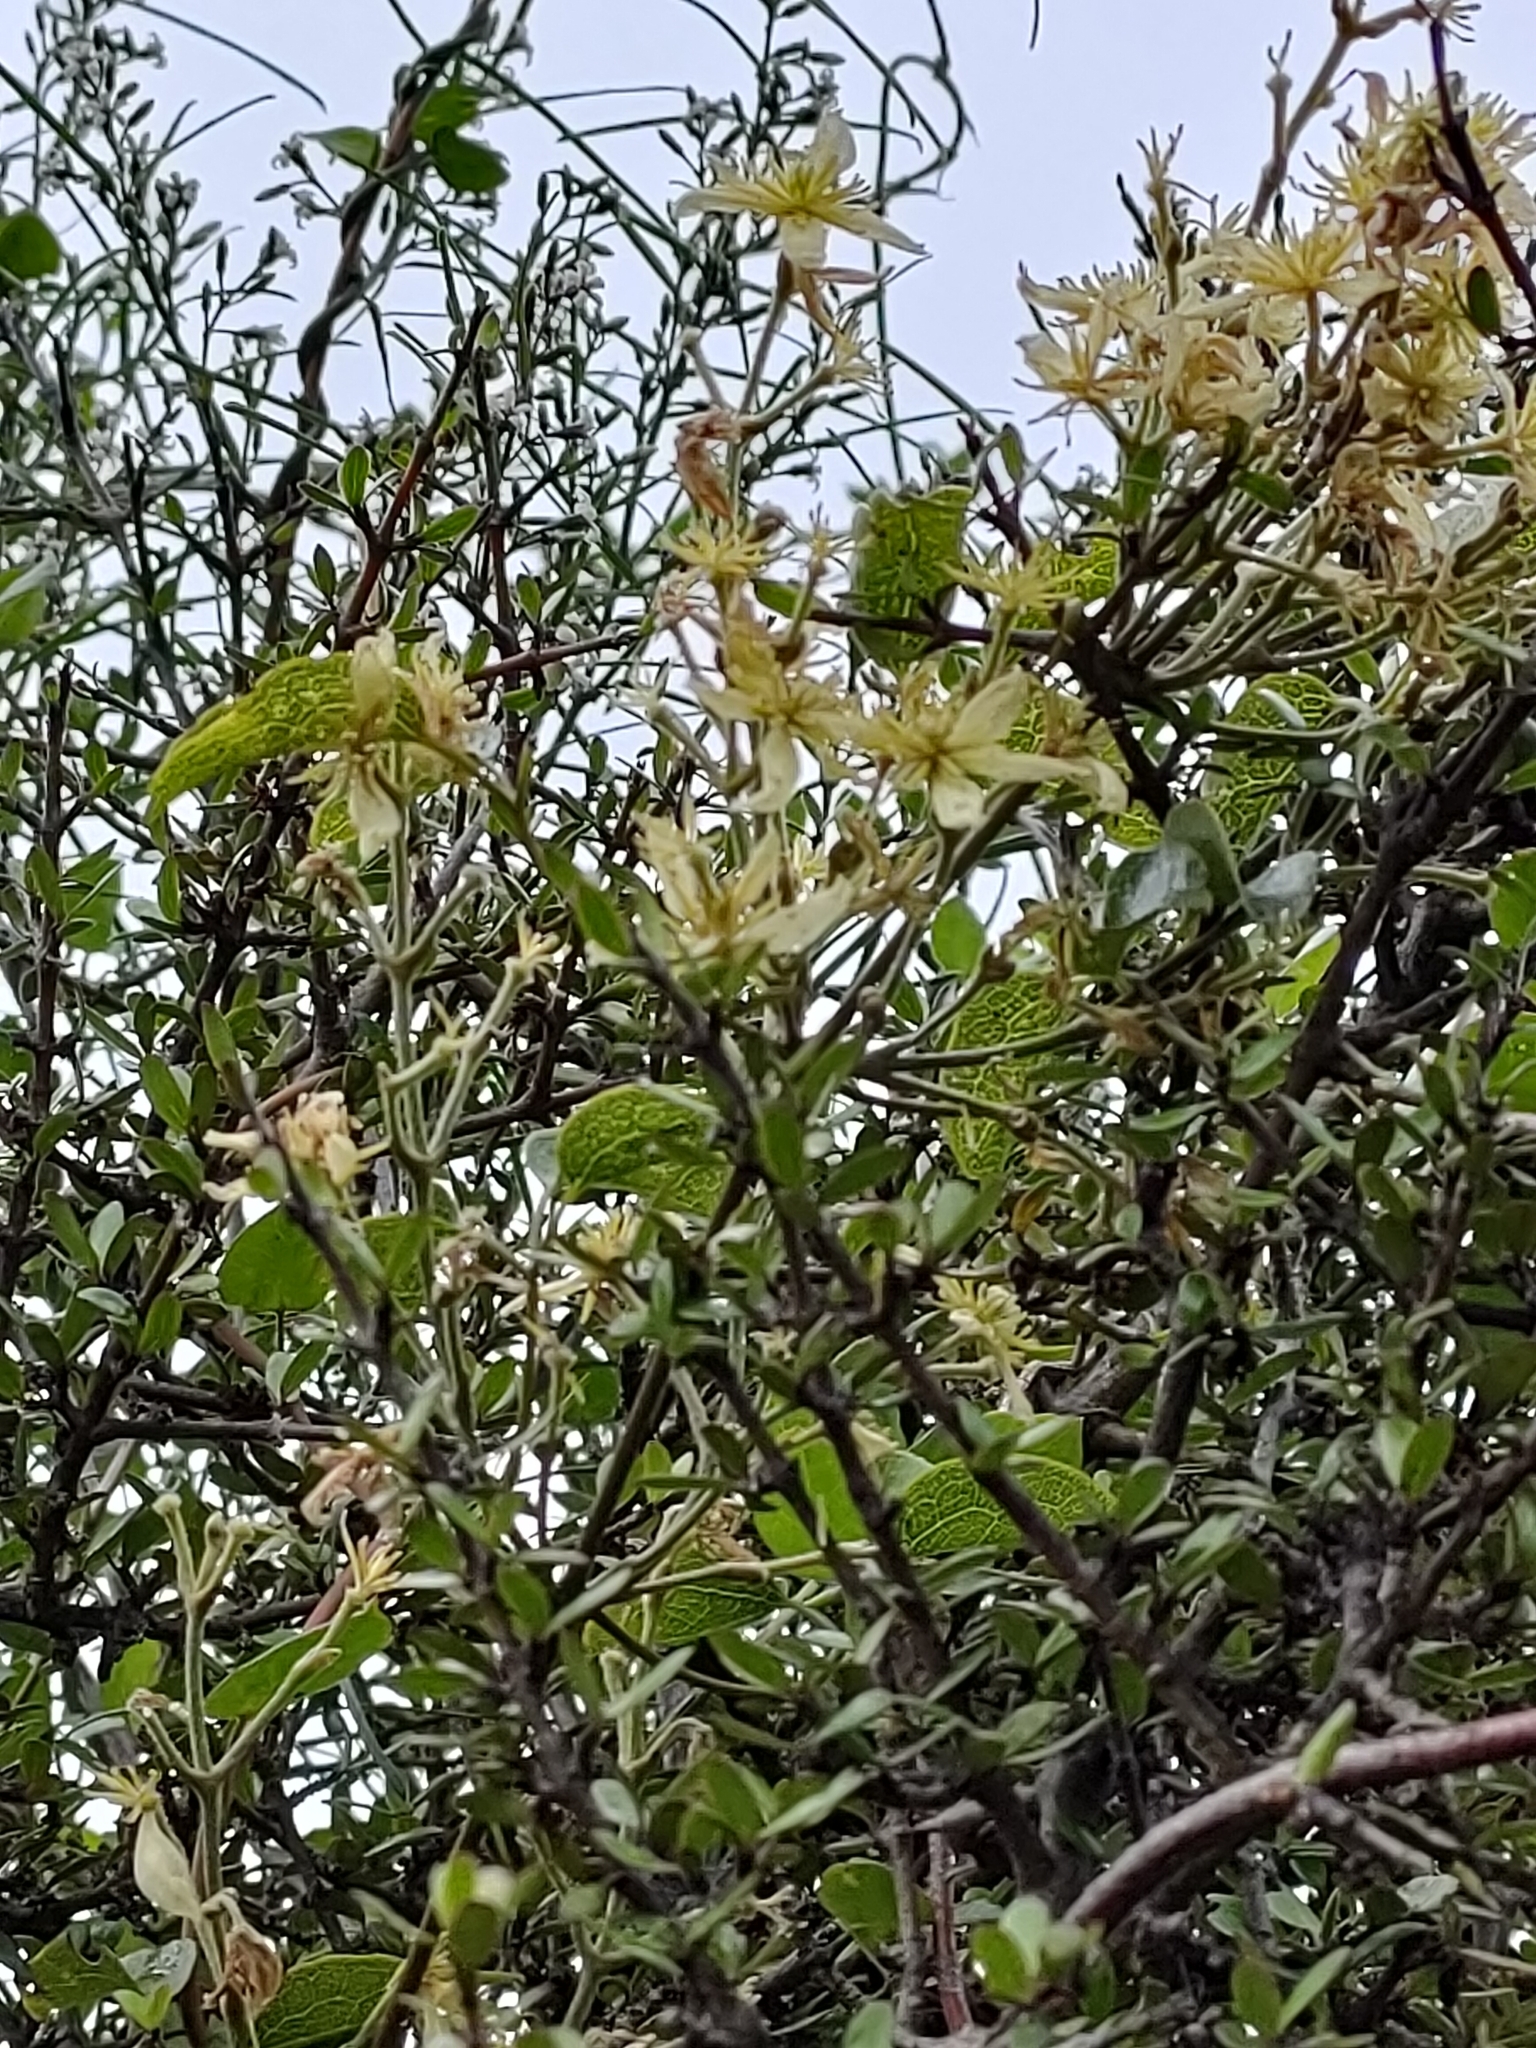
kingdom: Plantae
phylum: Tracheophyta
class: Magnoliopsida
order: Ranunculales
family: Ranunculaceae
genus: Clematis
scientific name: Clematis foetida
